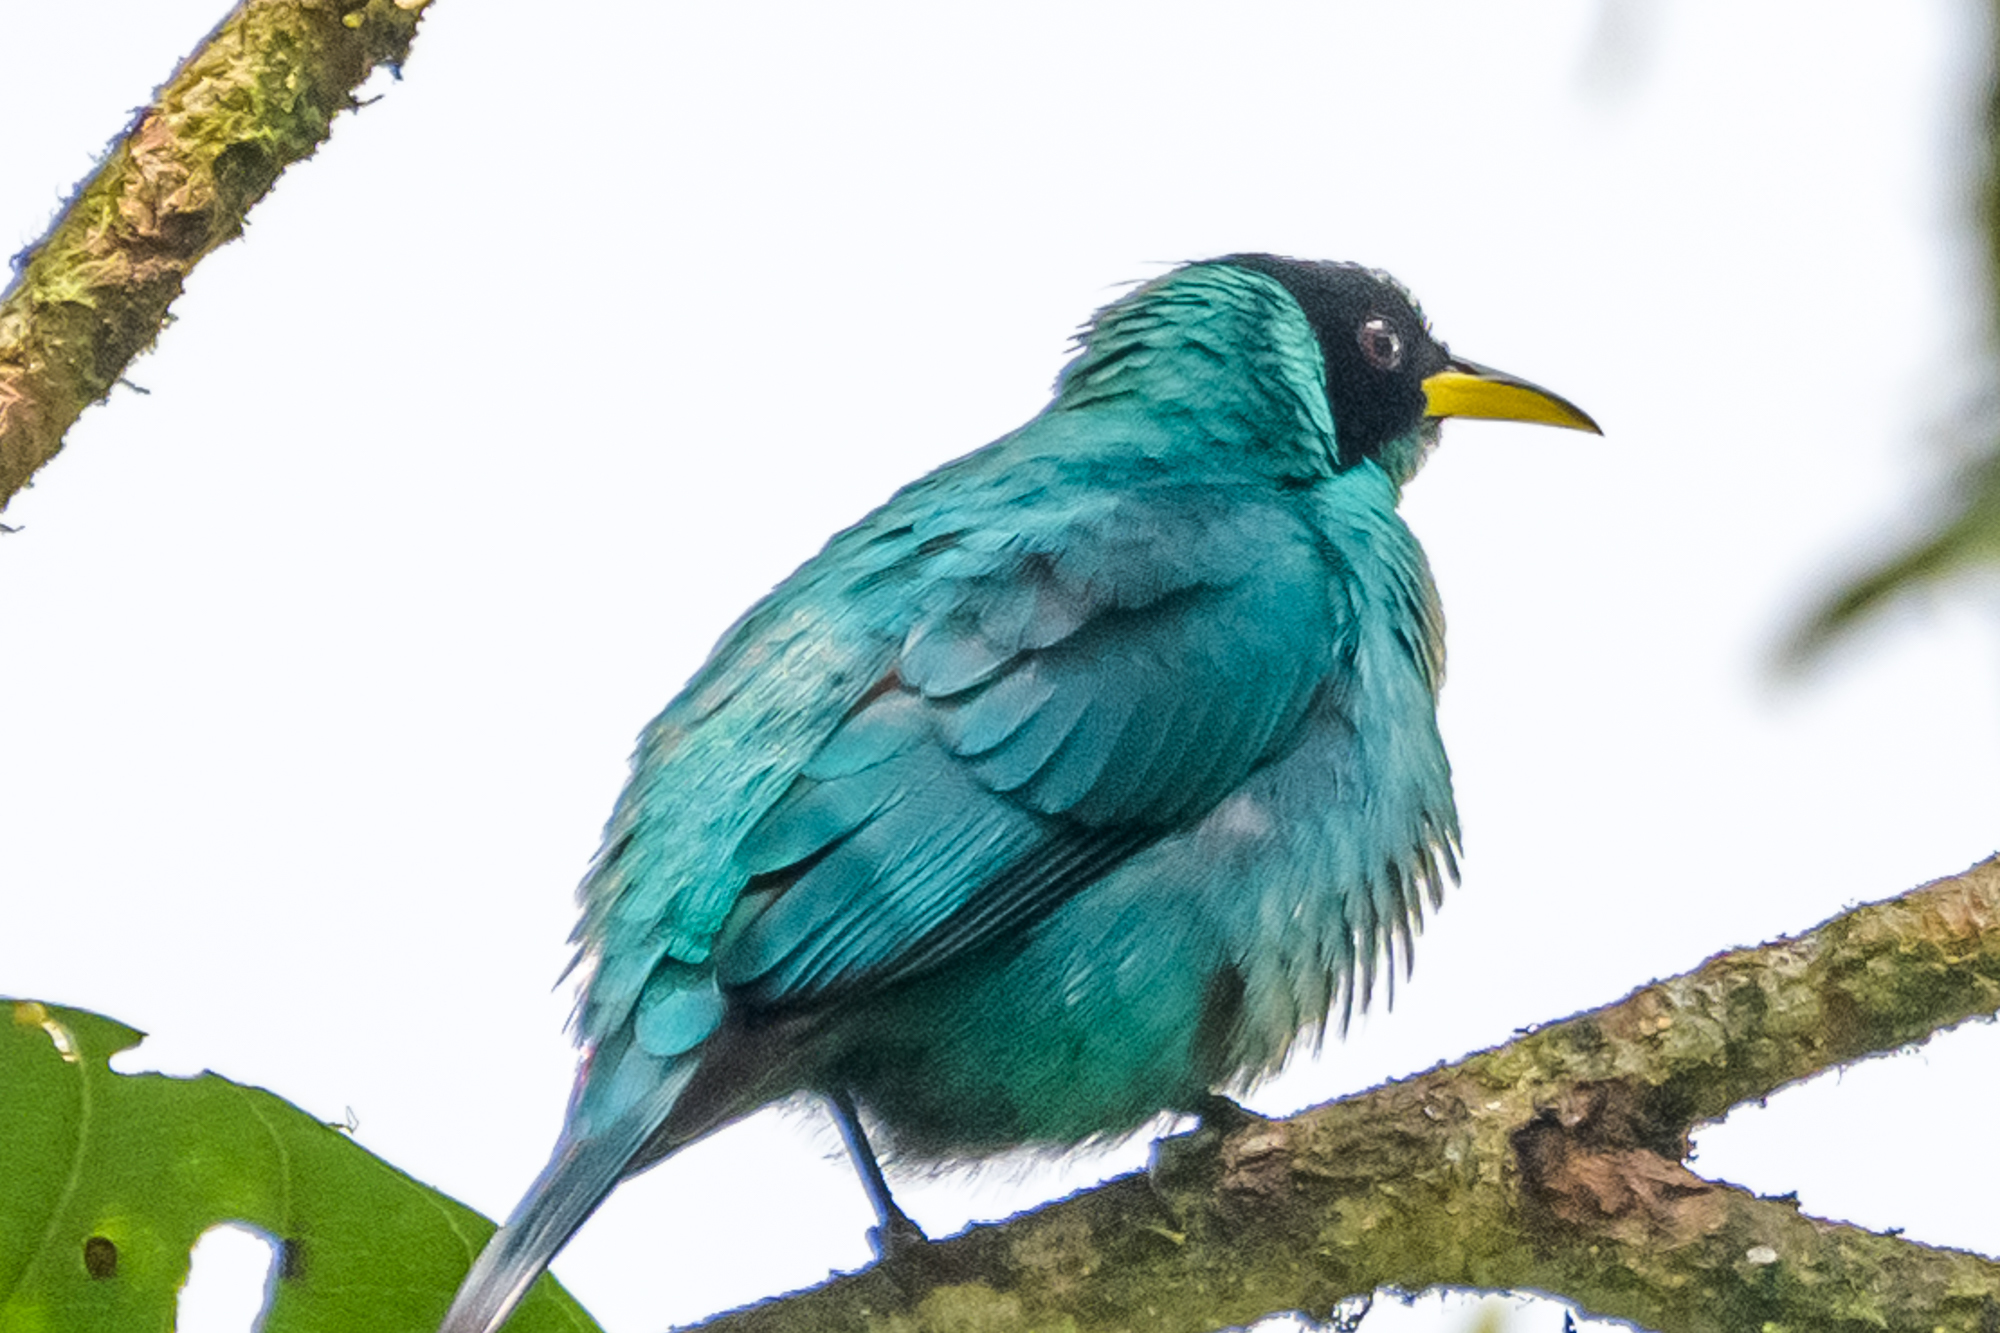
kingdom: Animalia
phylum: Chordata
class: Aves
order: Passeriformes
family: Thraupidae
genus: Chlorophanes
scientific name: Chlorophanes spiza
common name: Green honeycreeper
